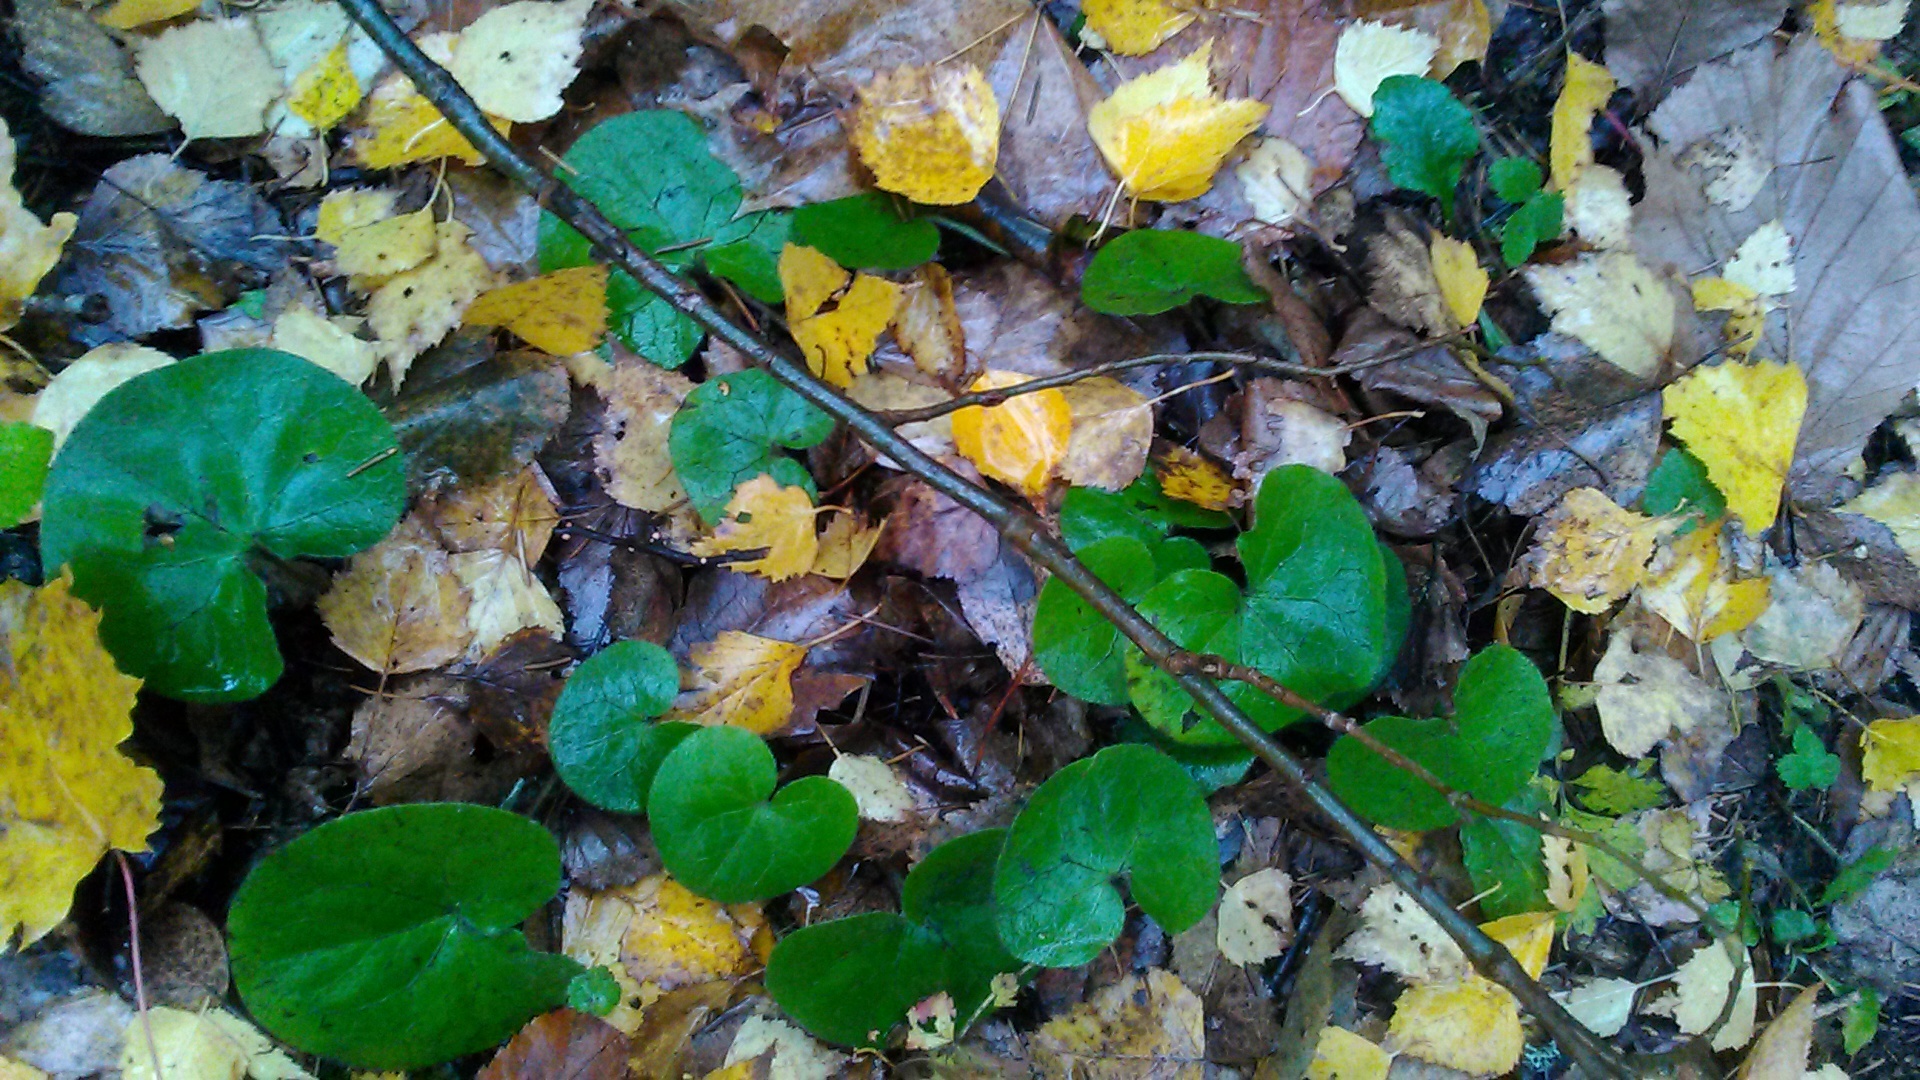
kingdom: Plantae
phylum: Tracheophyta
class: Magnoliopsida
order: Piperales
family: Aristolochiaceae
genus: Asarum
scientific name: Asarum europaeum
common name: Asarabacca
